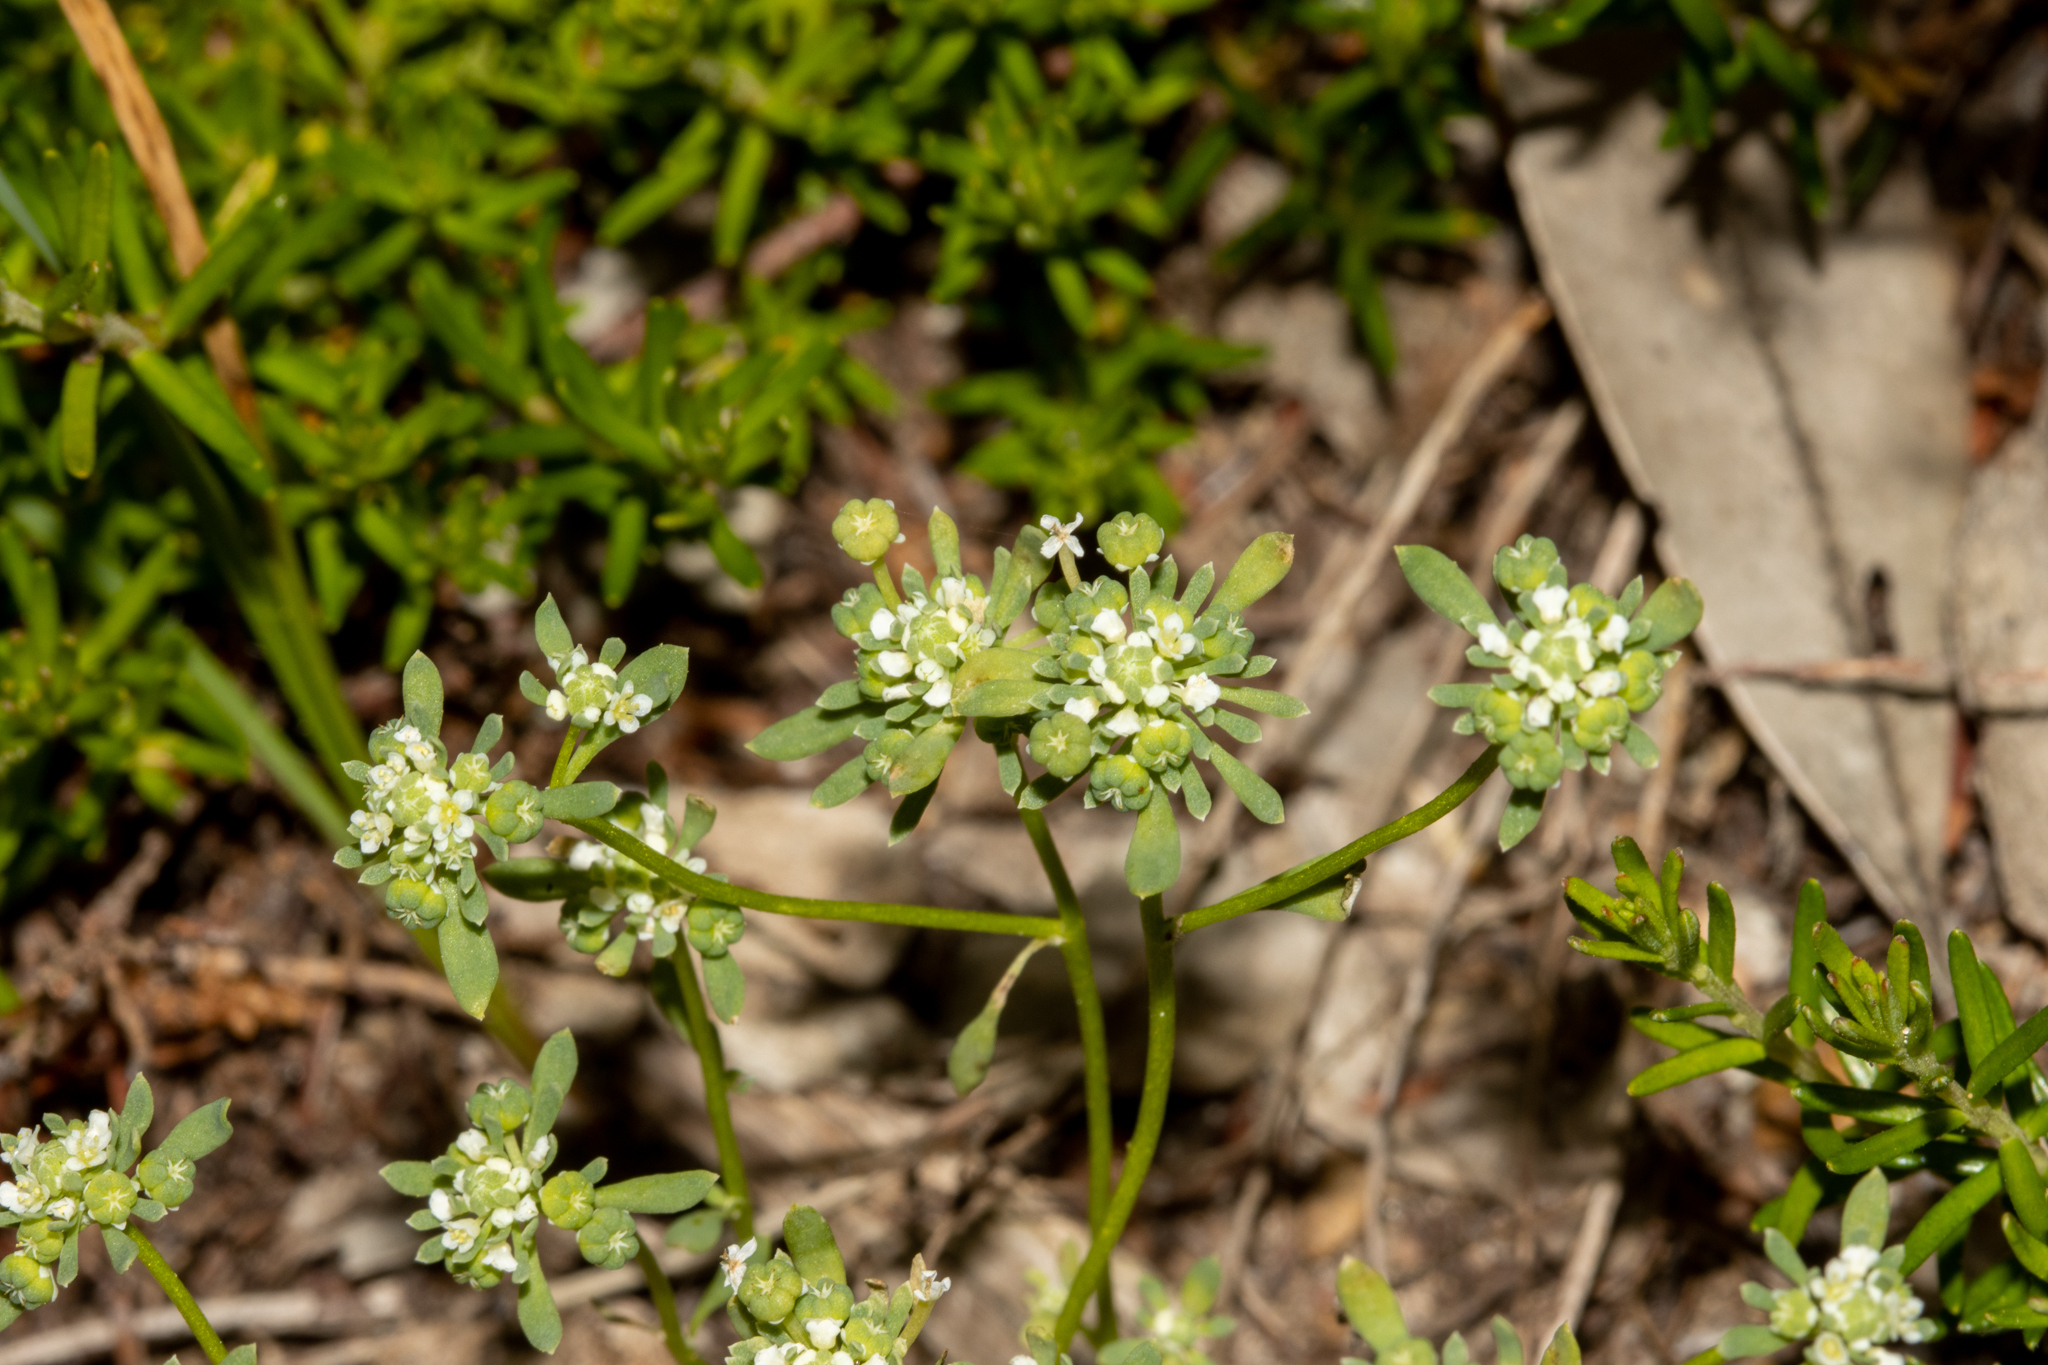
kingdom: Plantae
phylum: Tracheophyta
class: Magnoliopsida
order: Malpighiales
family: Phyllanthaceae
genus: Poranthera
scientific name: Poranthera microphylla
